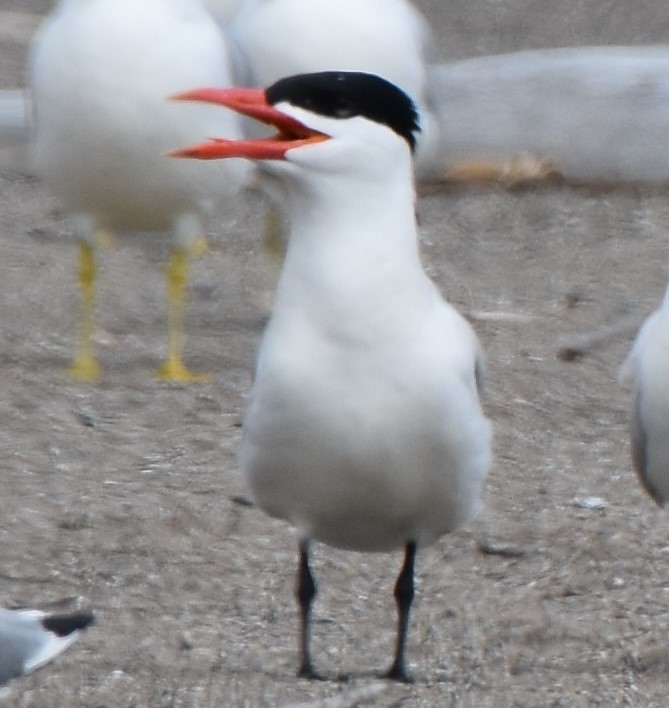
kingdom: Animalia
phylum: Chordata
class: Aves
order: Charadriiformes
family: Laridae
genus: Hydroprogne
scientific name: Hydroprogne caspia
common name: Caspian tern
